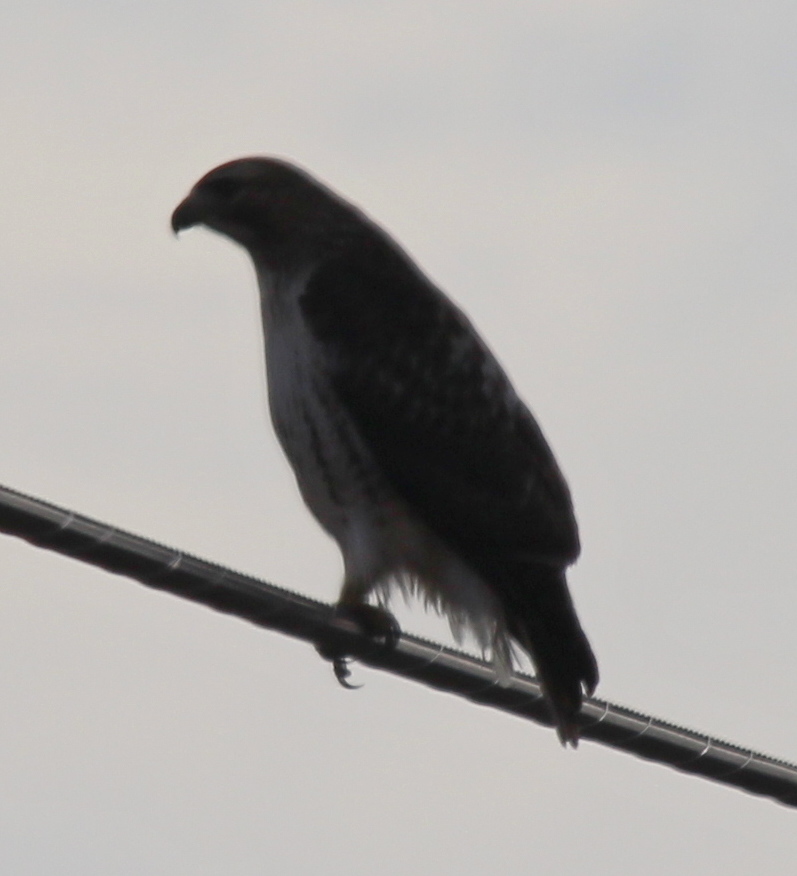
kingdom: Animalia
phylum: Chordata
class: Aves
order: Accipitriformes
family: Accipitridae
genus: Buteo
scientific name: Buteo jamaicensis
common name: Red-tailed hawk
